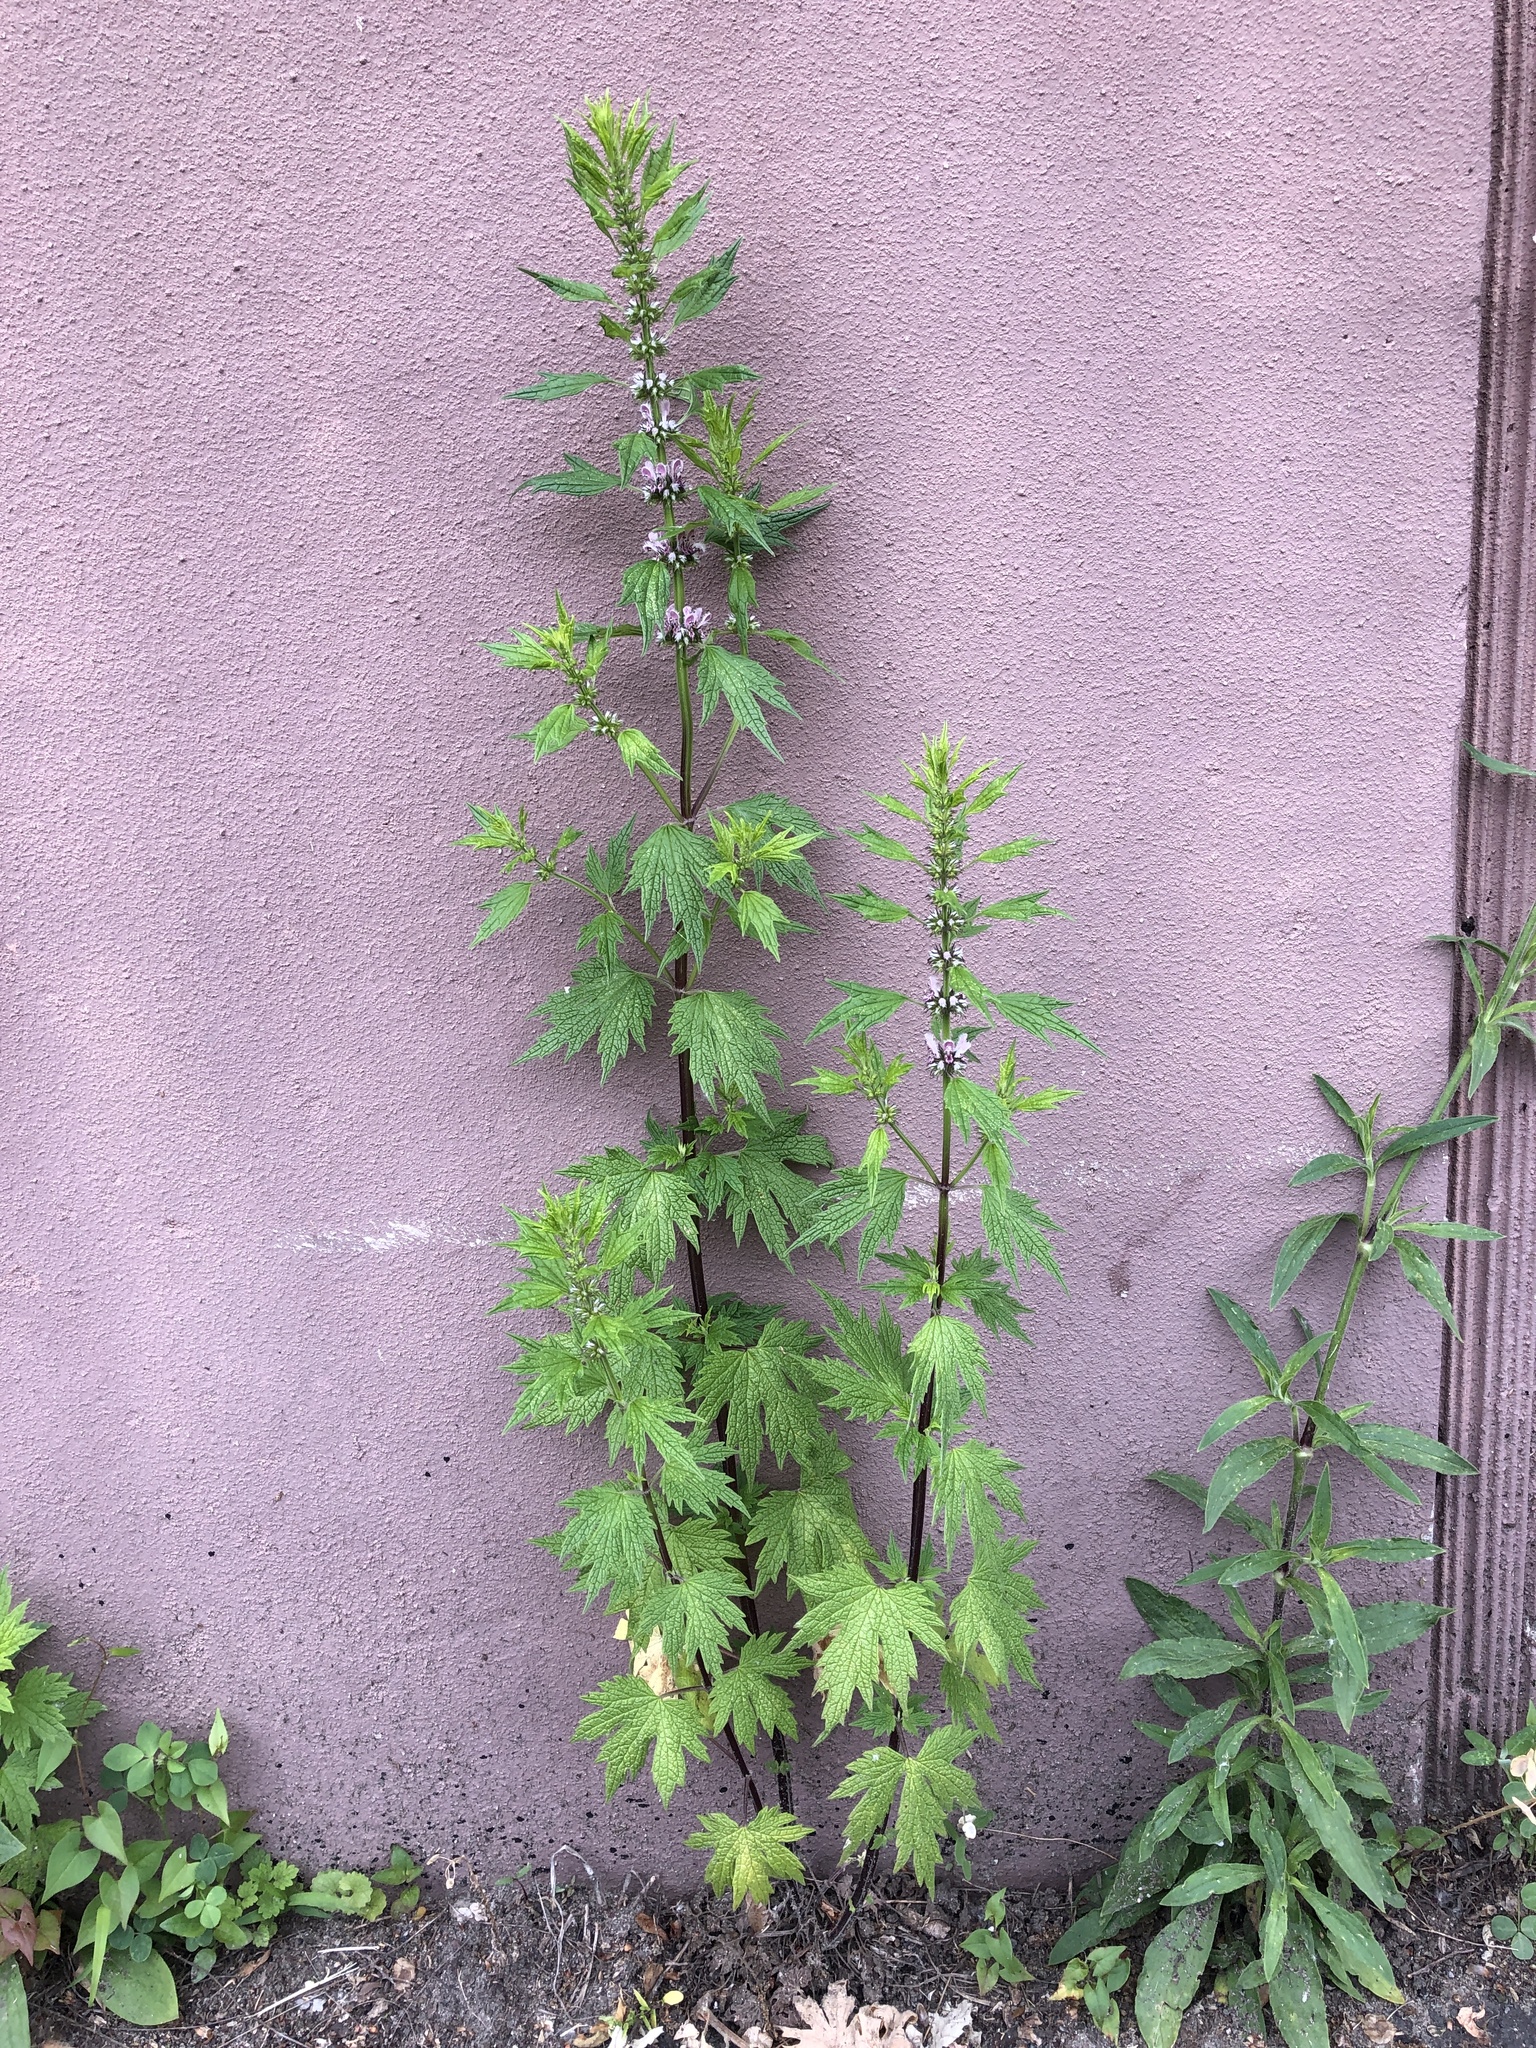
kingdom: Plantae
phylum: Tracheophyta
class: Magnoliopsida
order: Lamiales
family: Lamiaceae
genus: Leonurus
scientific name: Leonurus cardiaca
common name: Motherwort
